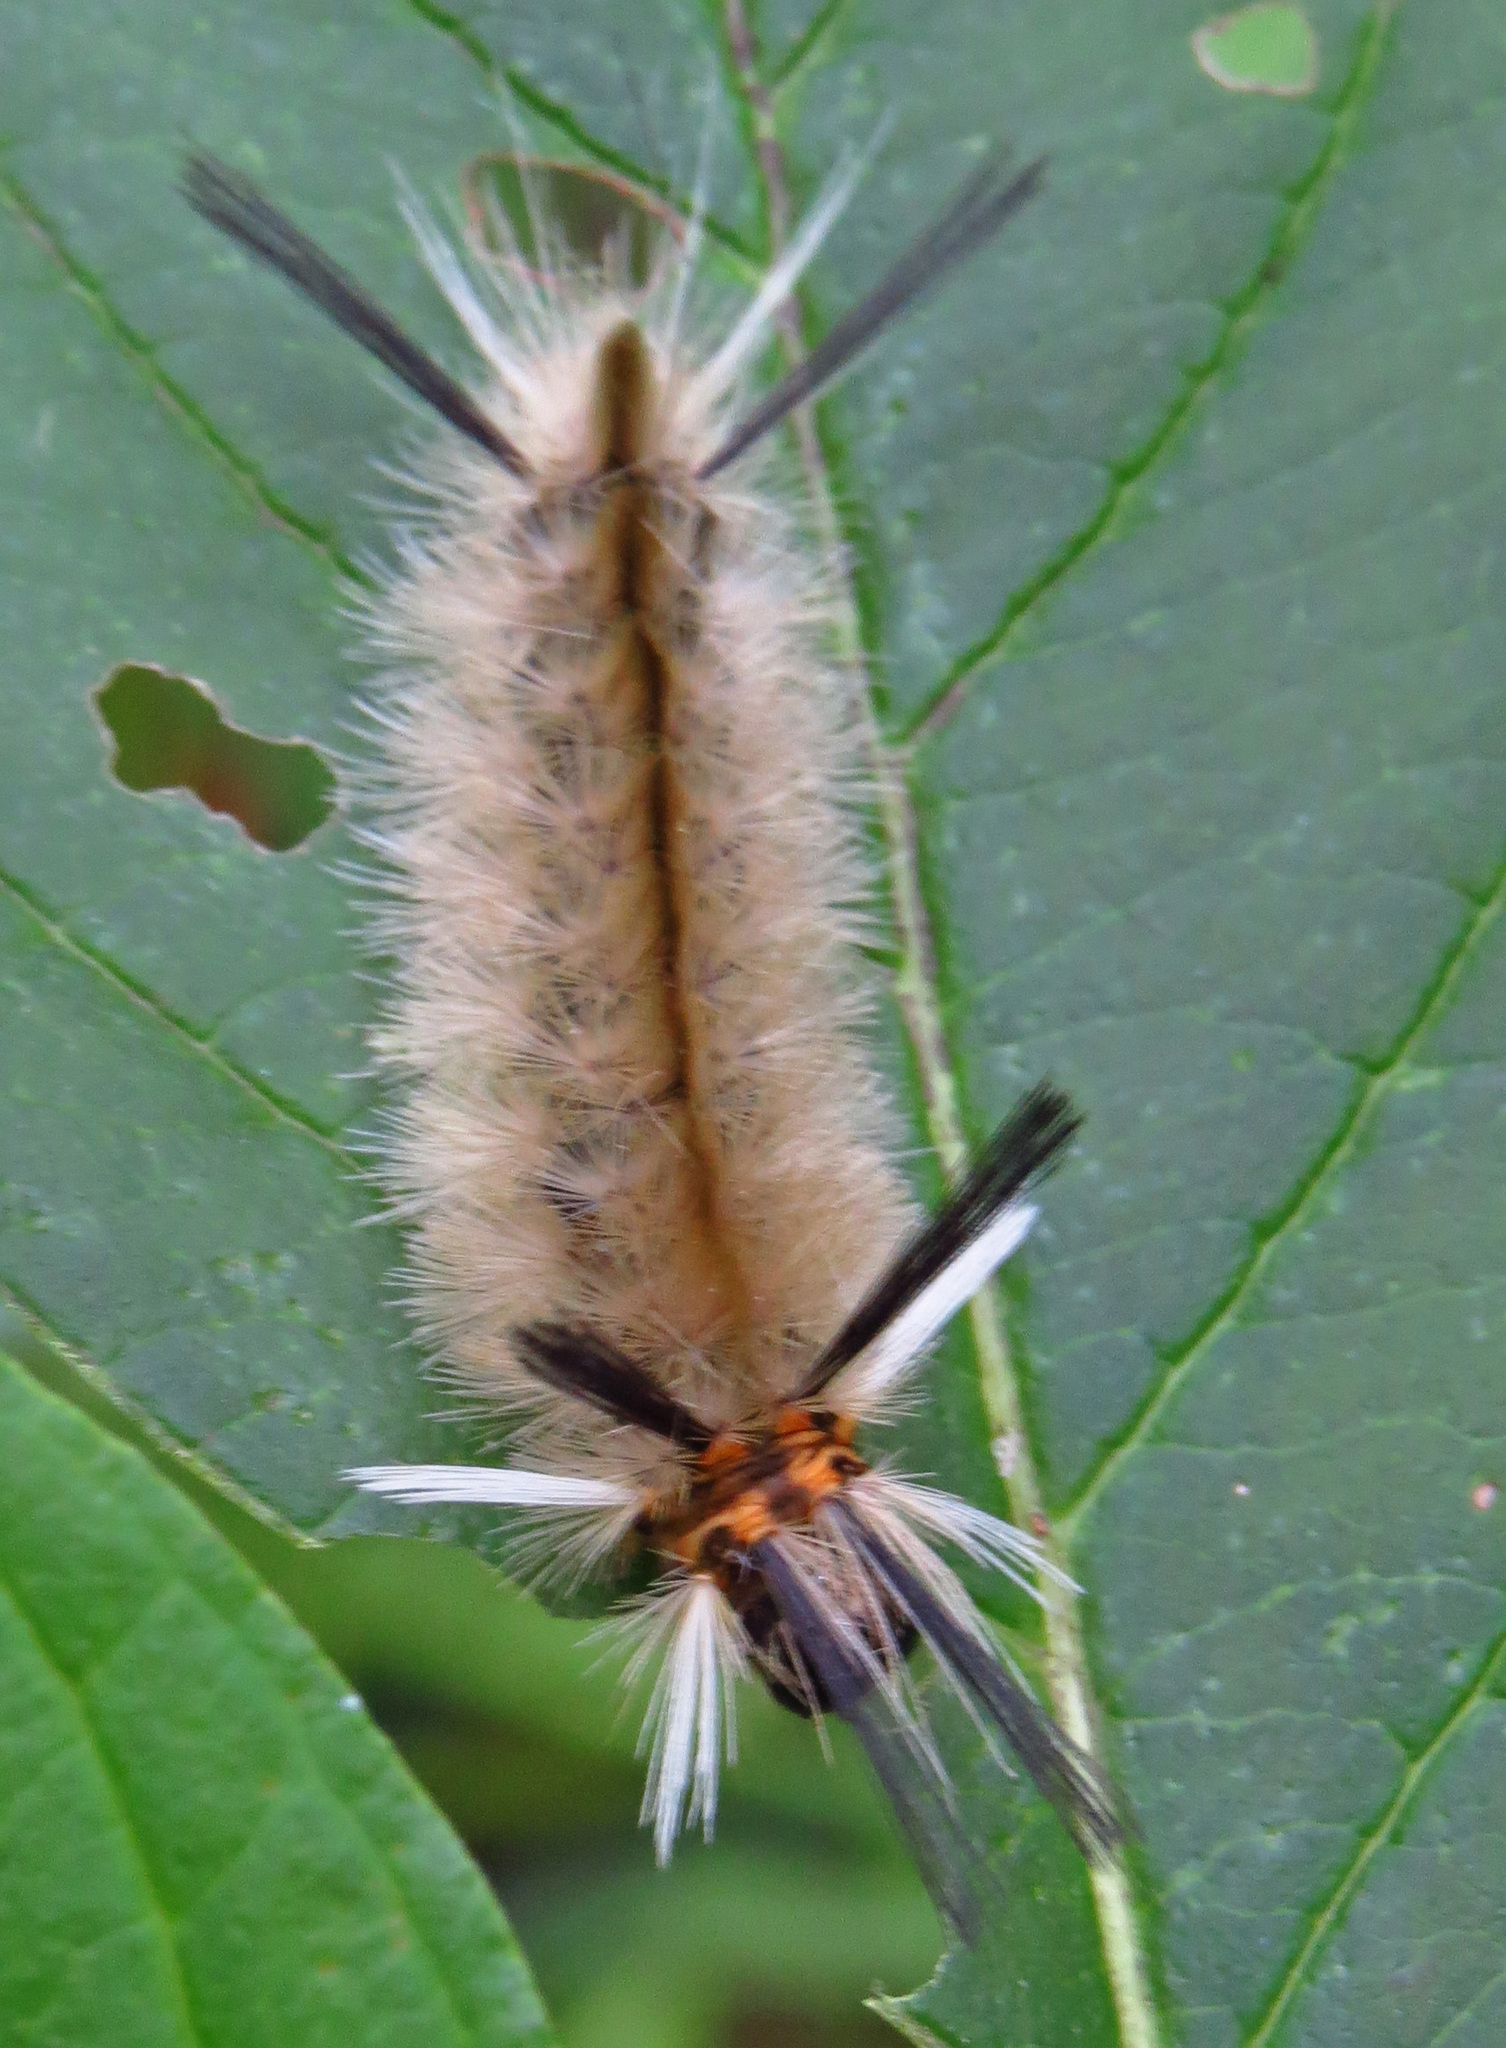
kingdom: Animalia
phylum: Arthropoda
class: Insecta
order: Lepidoptera
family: Erebidae
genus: Halysidota
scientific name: Halysidota tessellaris
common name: Banded tussock moth
